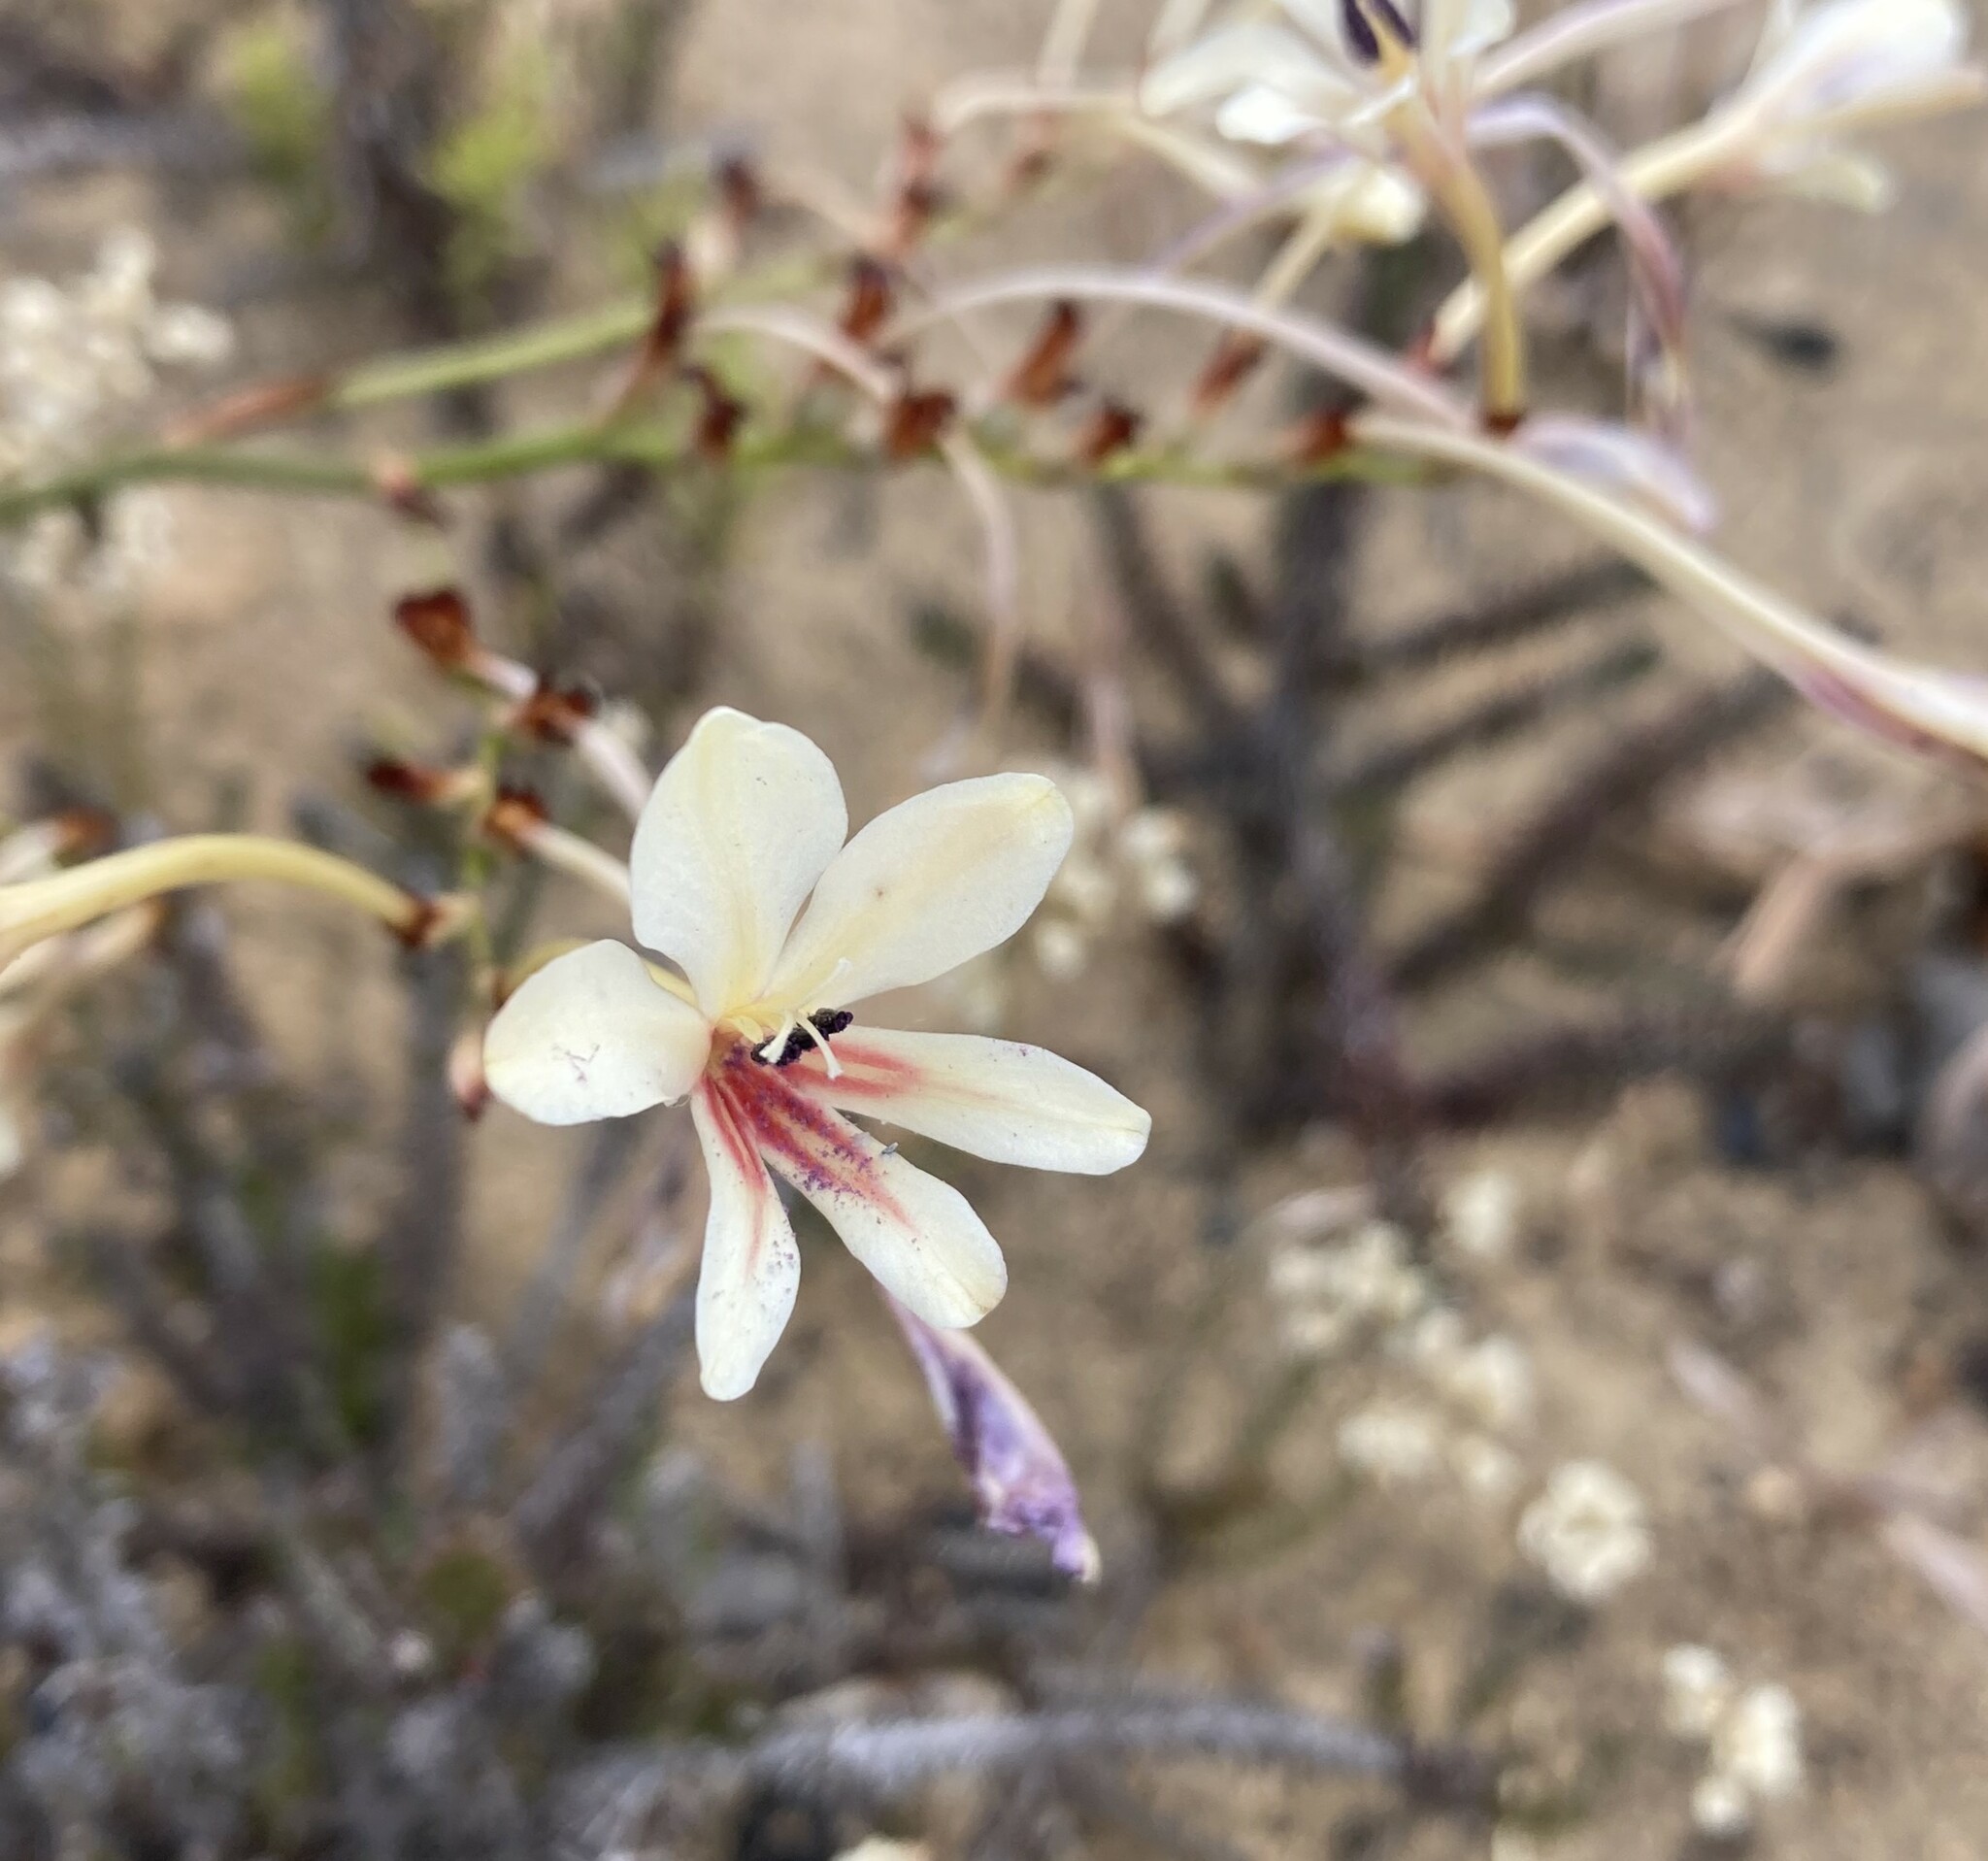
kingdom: Plantae
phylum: Tracheophyta
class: Liliopsida
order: Asparagales
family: Iridaceae
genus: Tritonia
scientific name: Tritonia undulata
